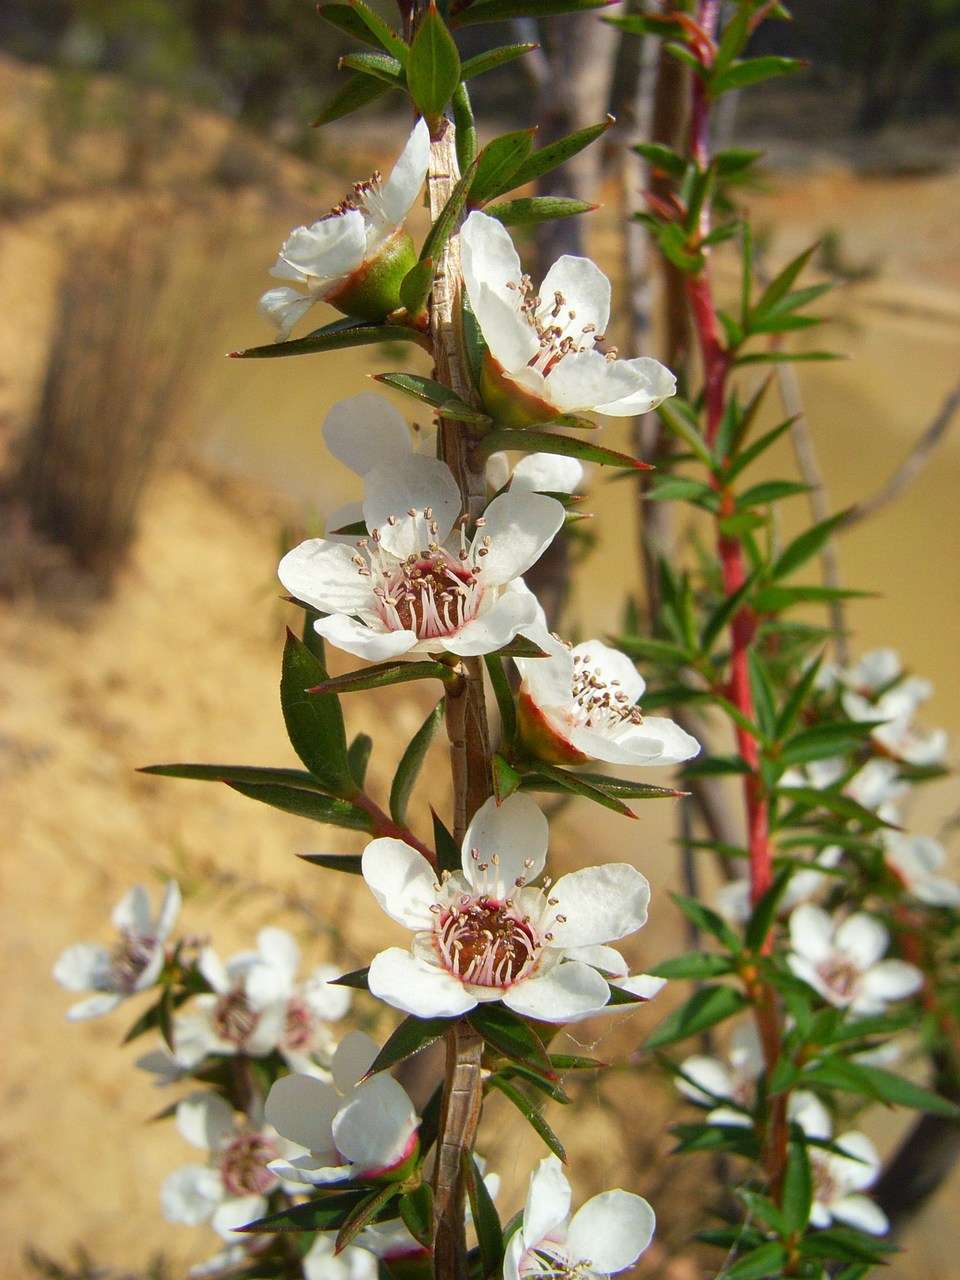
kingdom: Plantae
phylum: Tracheophyta
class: Magnoliopsida
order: Myrtales
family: Myrtaceae
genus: Leptospermum
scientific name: Leptospermum continentale
